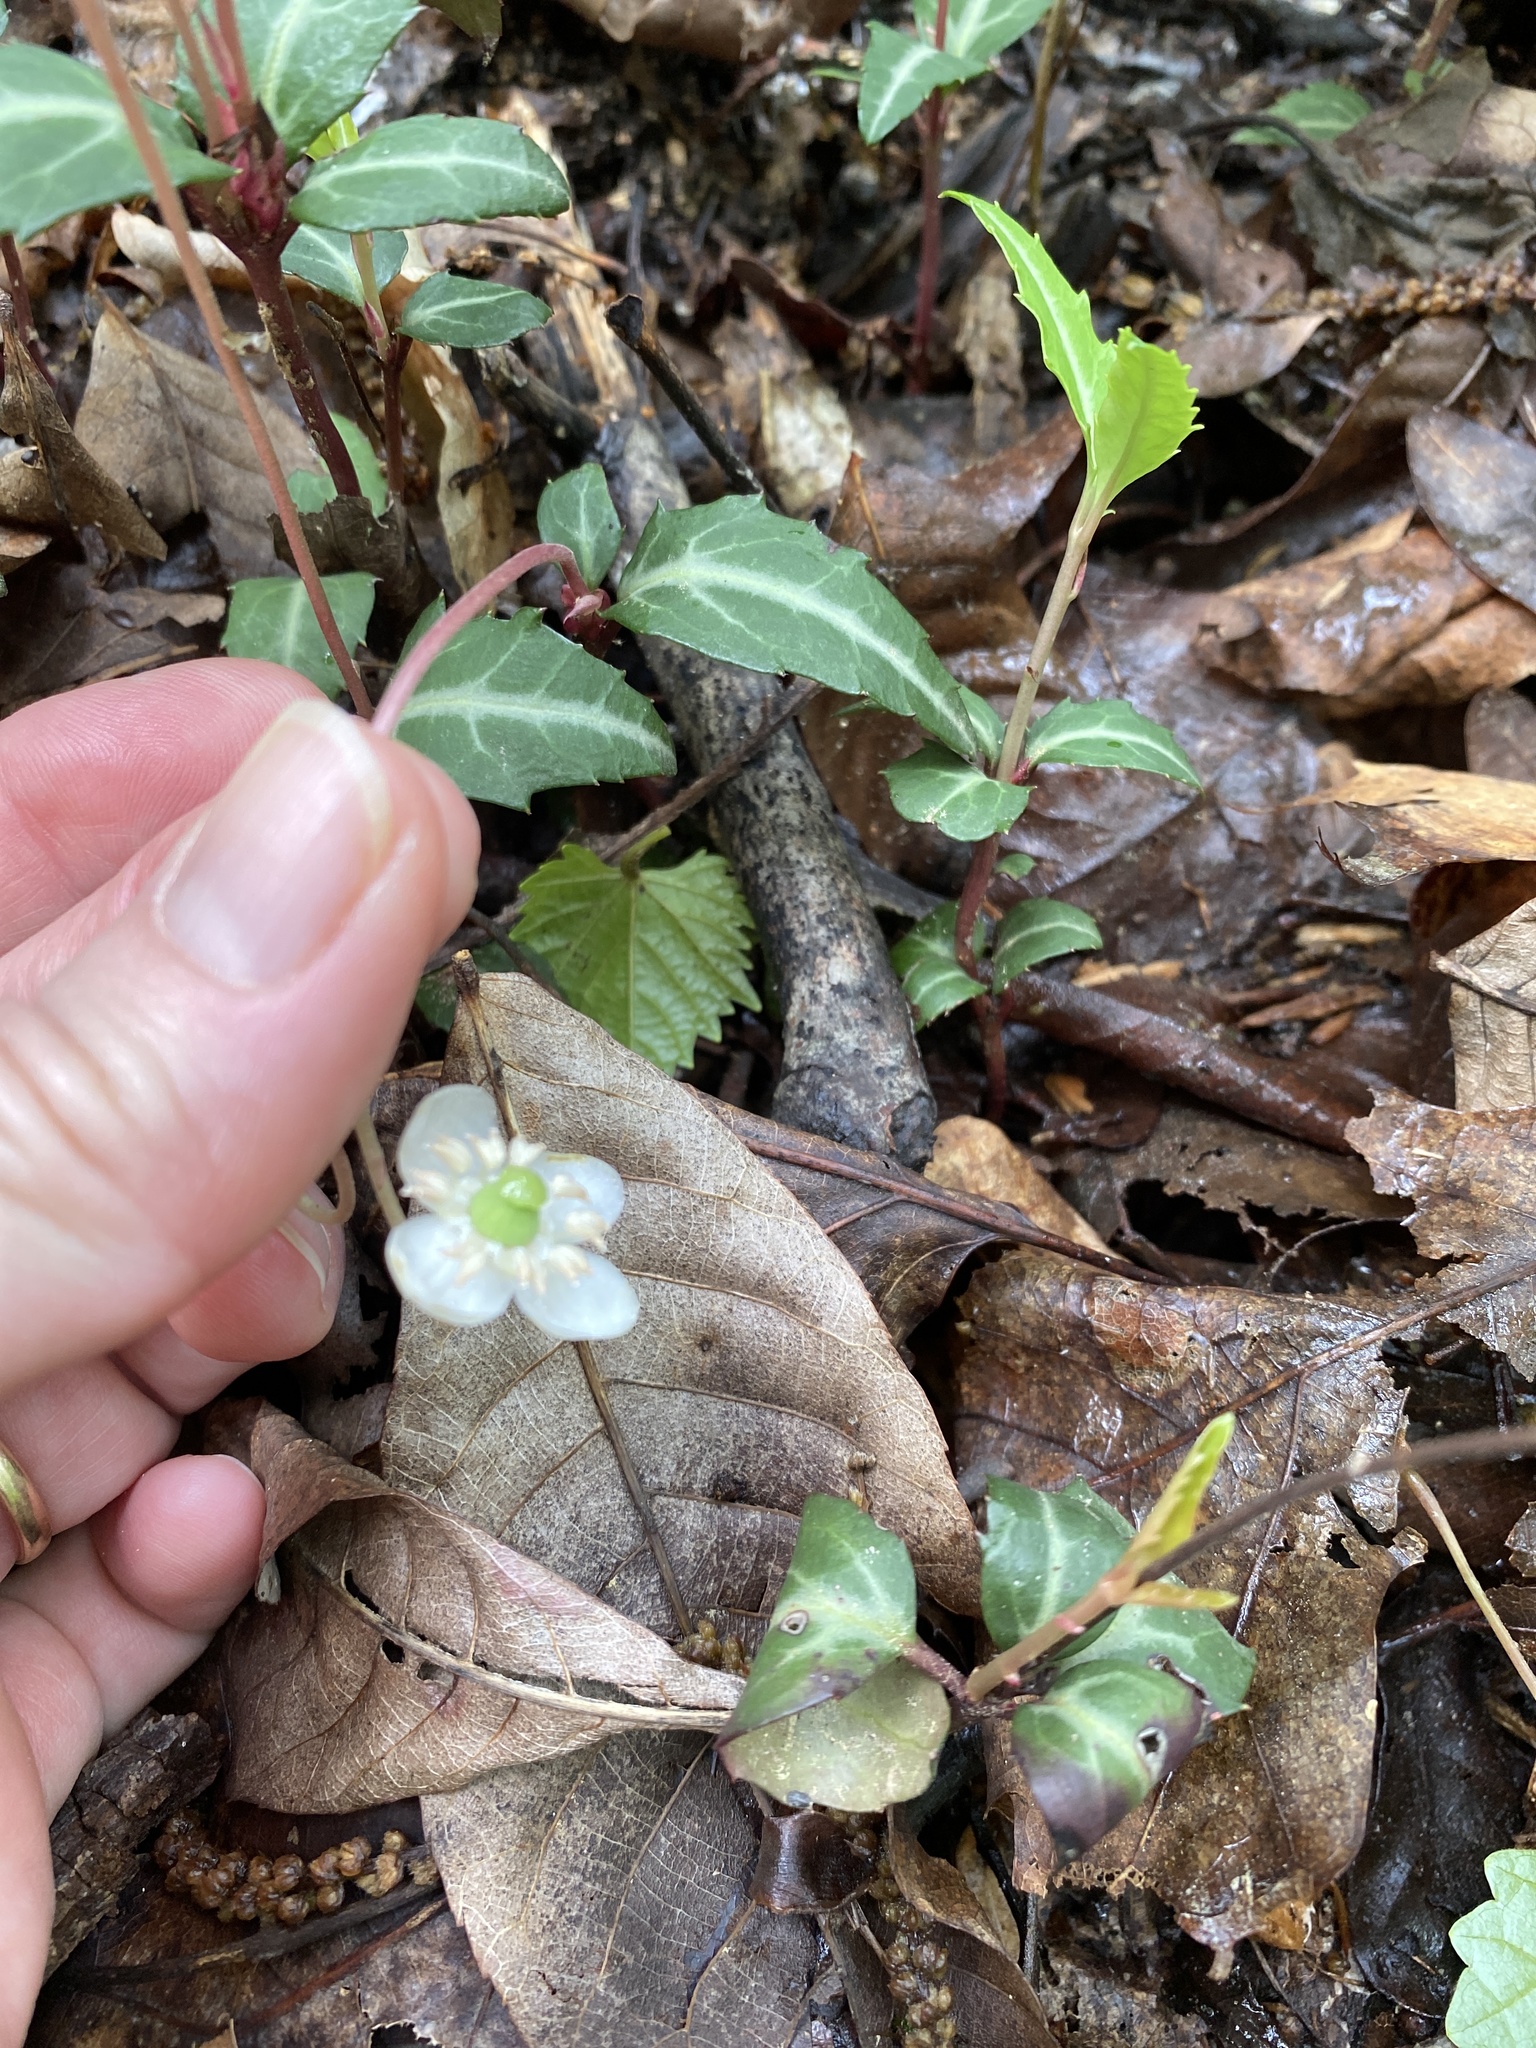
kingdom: Plantae
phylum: Tracheophyta
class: Magnoliopsida
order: Ericales
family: Ericaceae
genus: Chimaphila
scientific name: Chimaphila maculata
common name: Spotted pipsissewa
